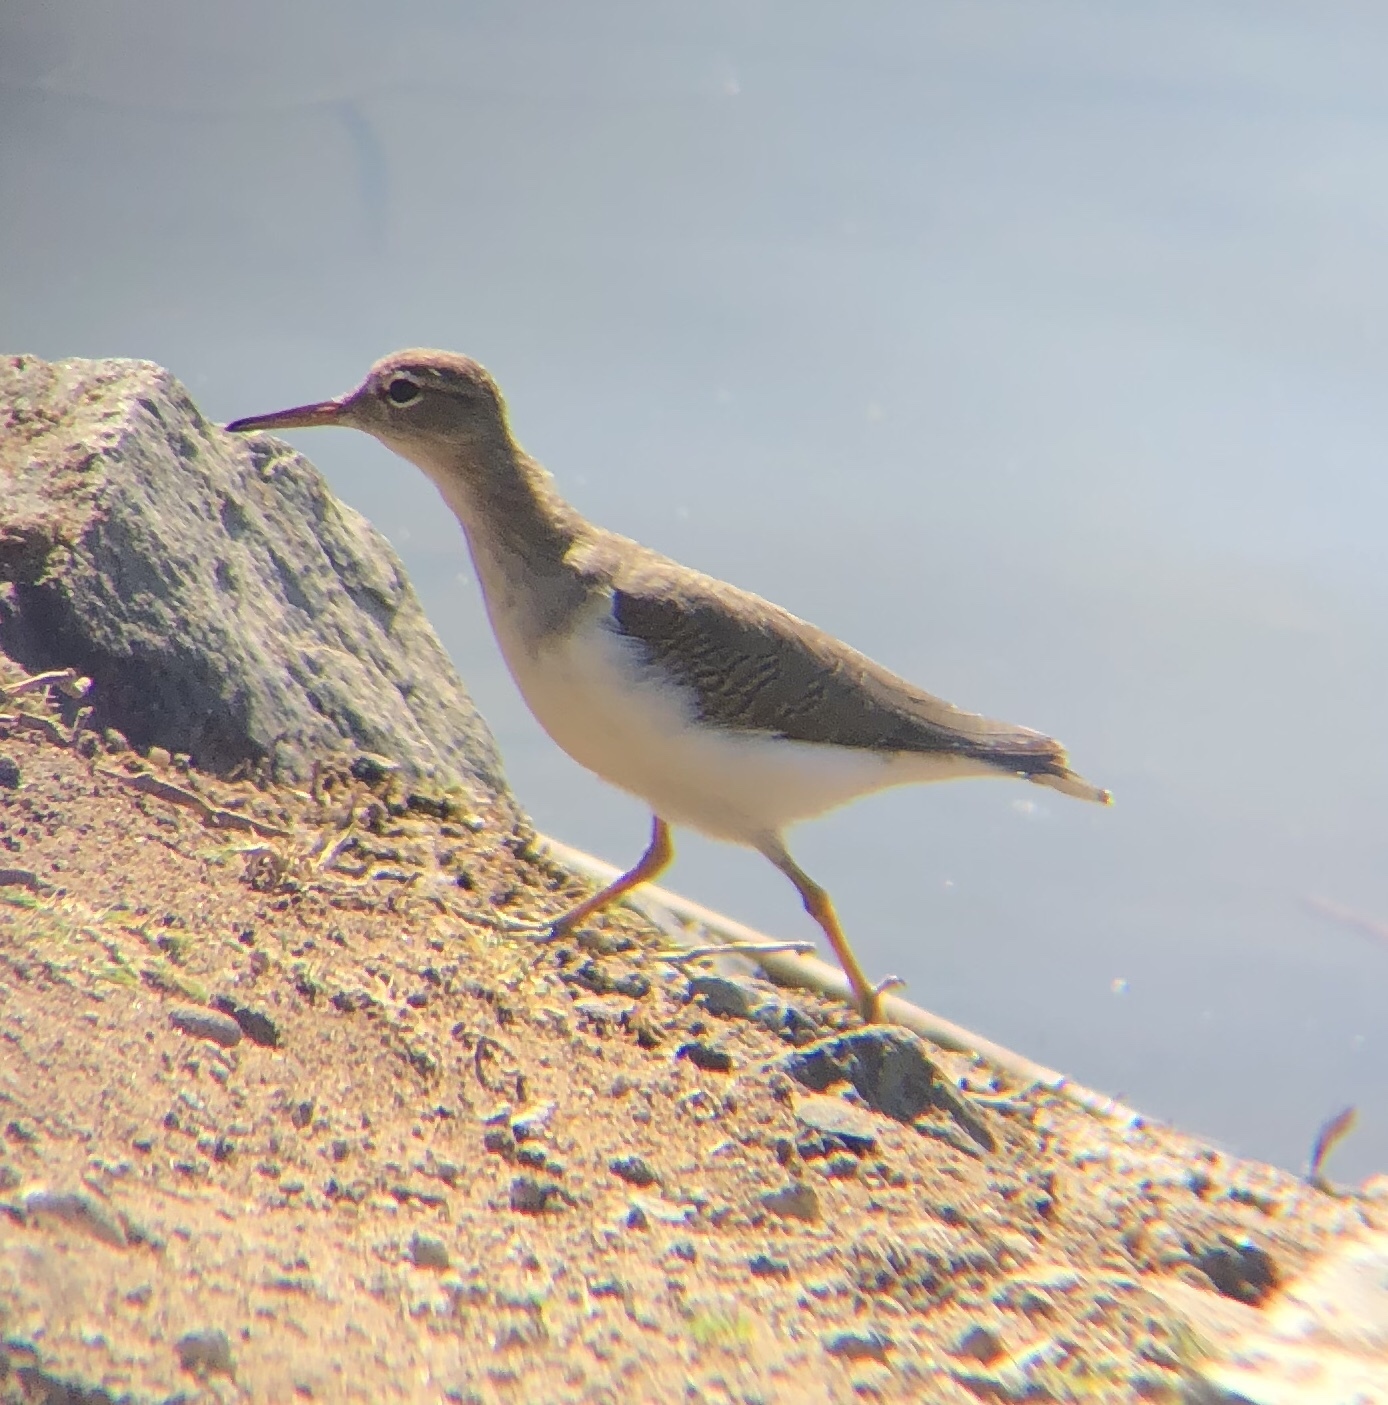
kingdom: Animalia
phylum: Chordata
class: Aves
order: Charadriiformes
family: Scolopacidae
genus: Actitis
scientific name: Actitis macularius
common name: Spotted sandpiper
